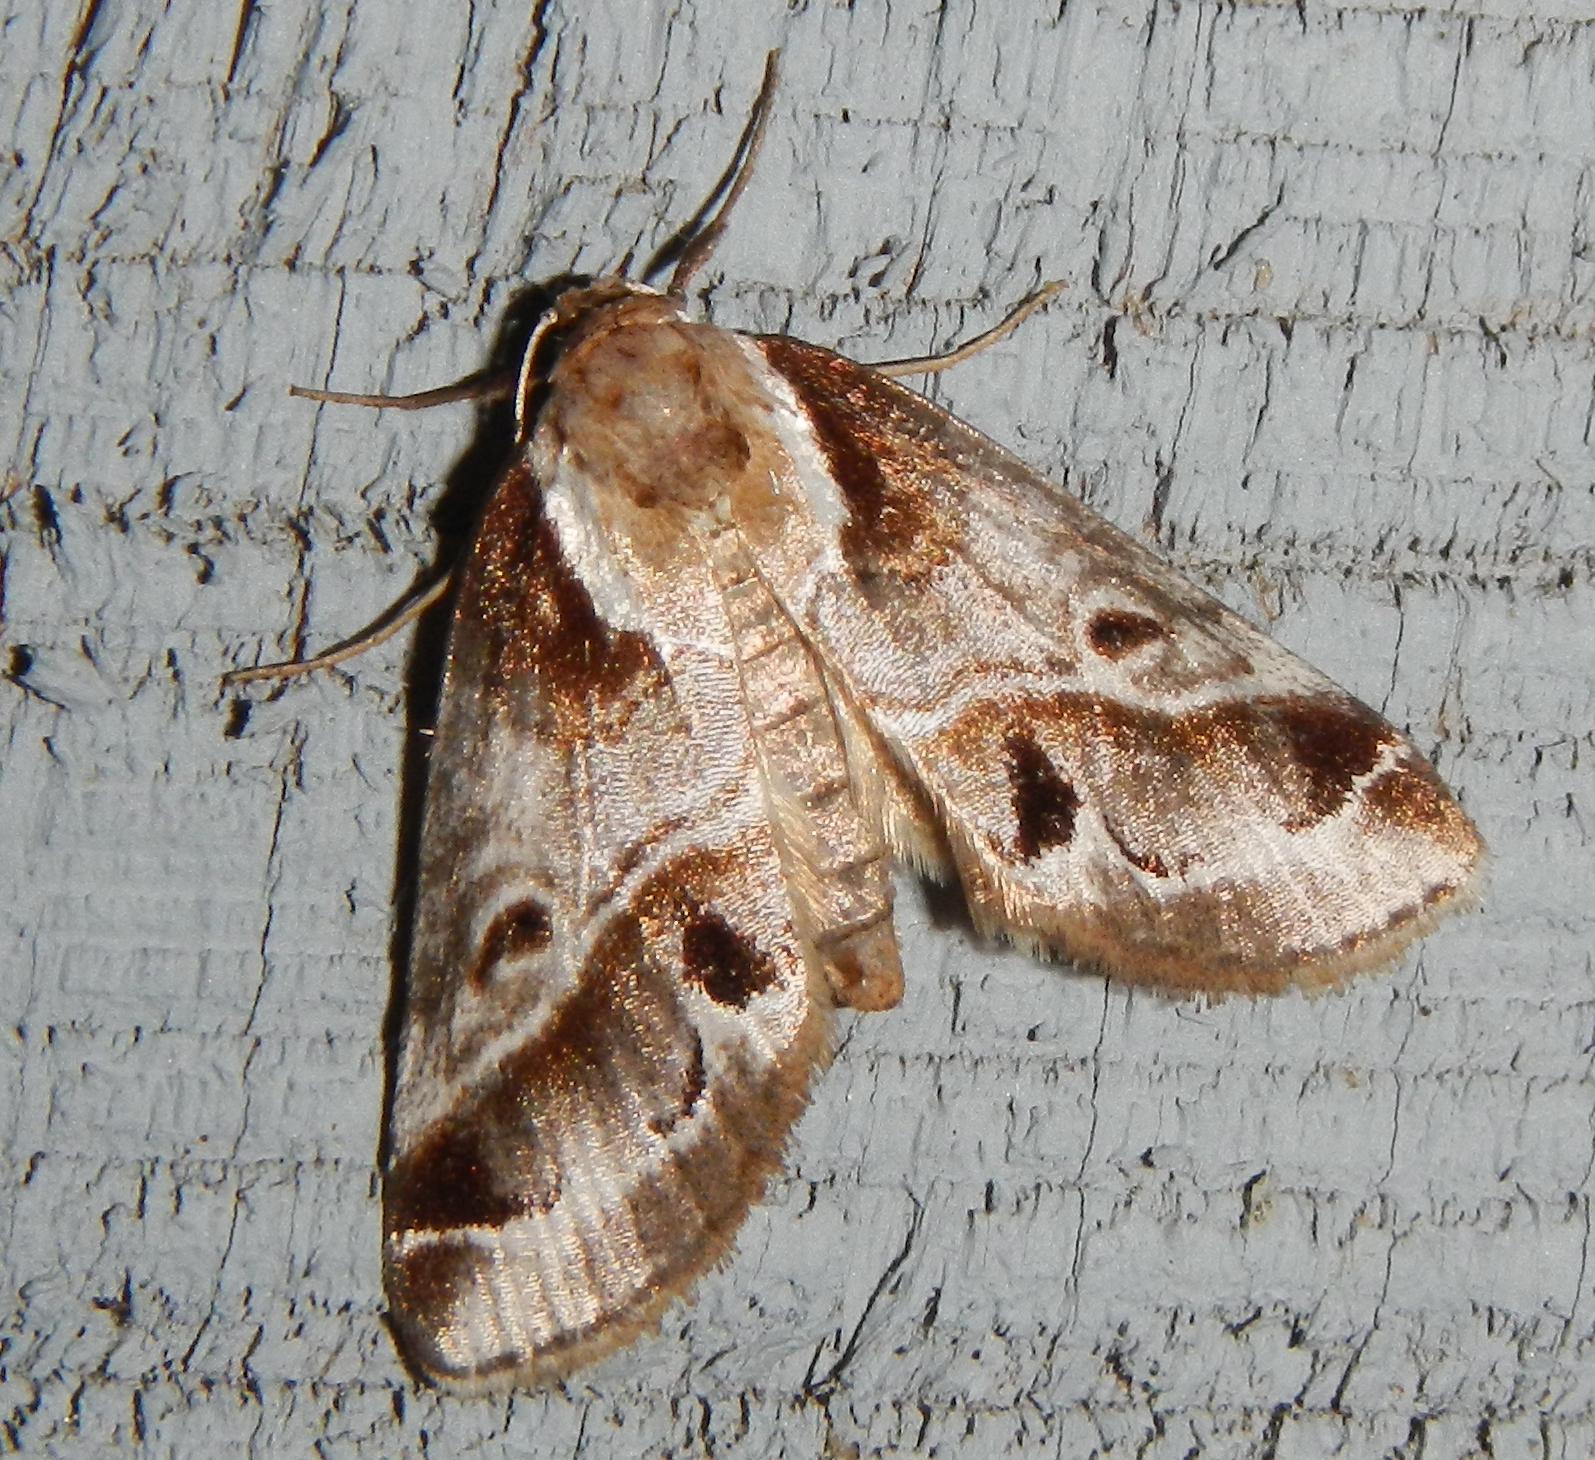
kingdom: Animalia
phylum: Arthropoda
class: Insecta
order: Lepidoptera
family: Nolidae
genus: Baileya
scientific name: Baileya doubledayi
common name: Doubleday's baileya moth
